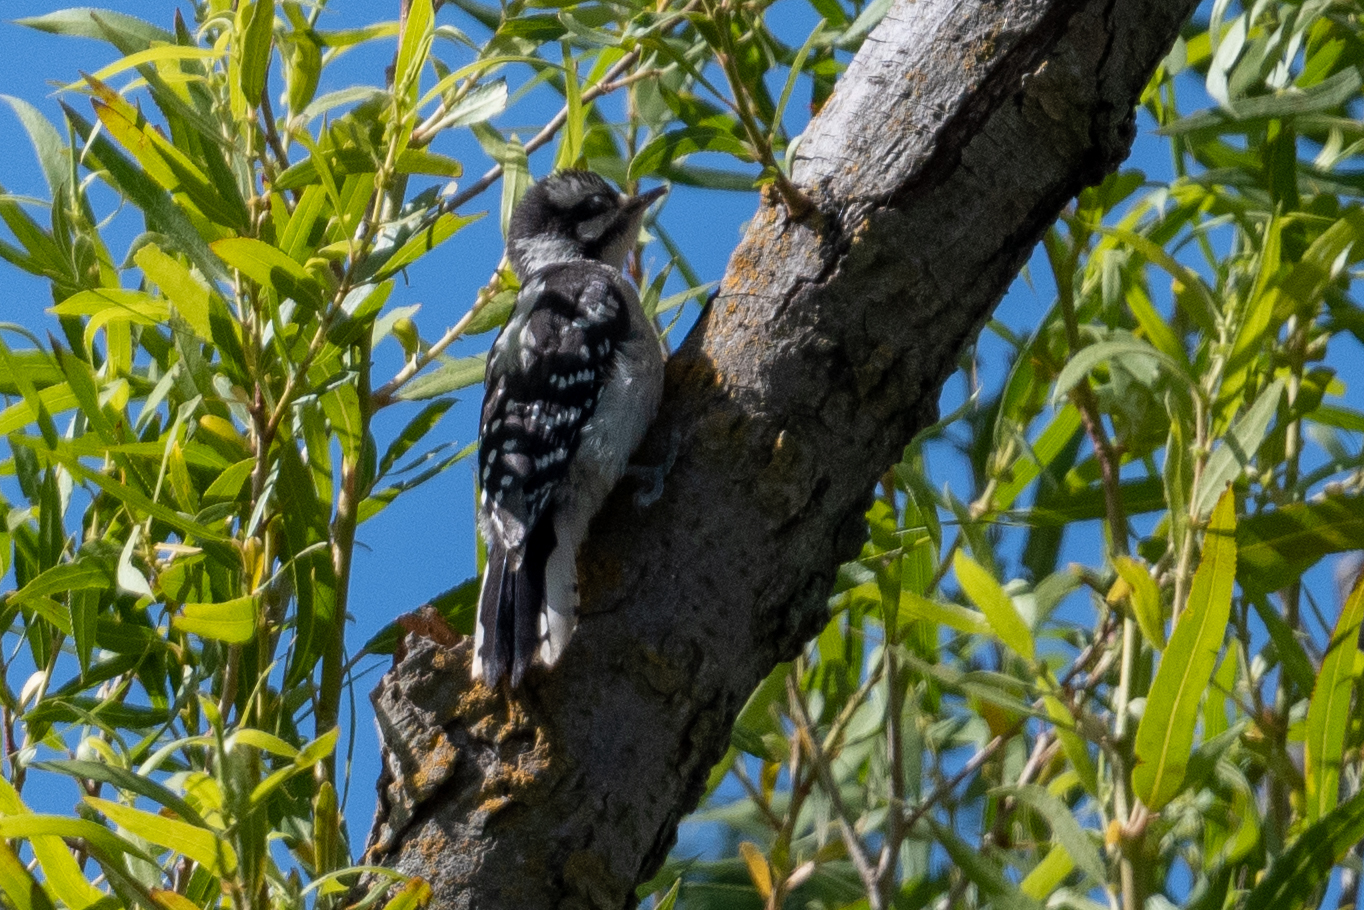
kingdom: Animalia
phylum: Chordata
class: Aves
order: Piciformes
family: Picidae
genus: Dryobates
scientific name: Dryobates pubescens
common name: Downy woodpecker
